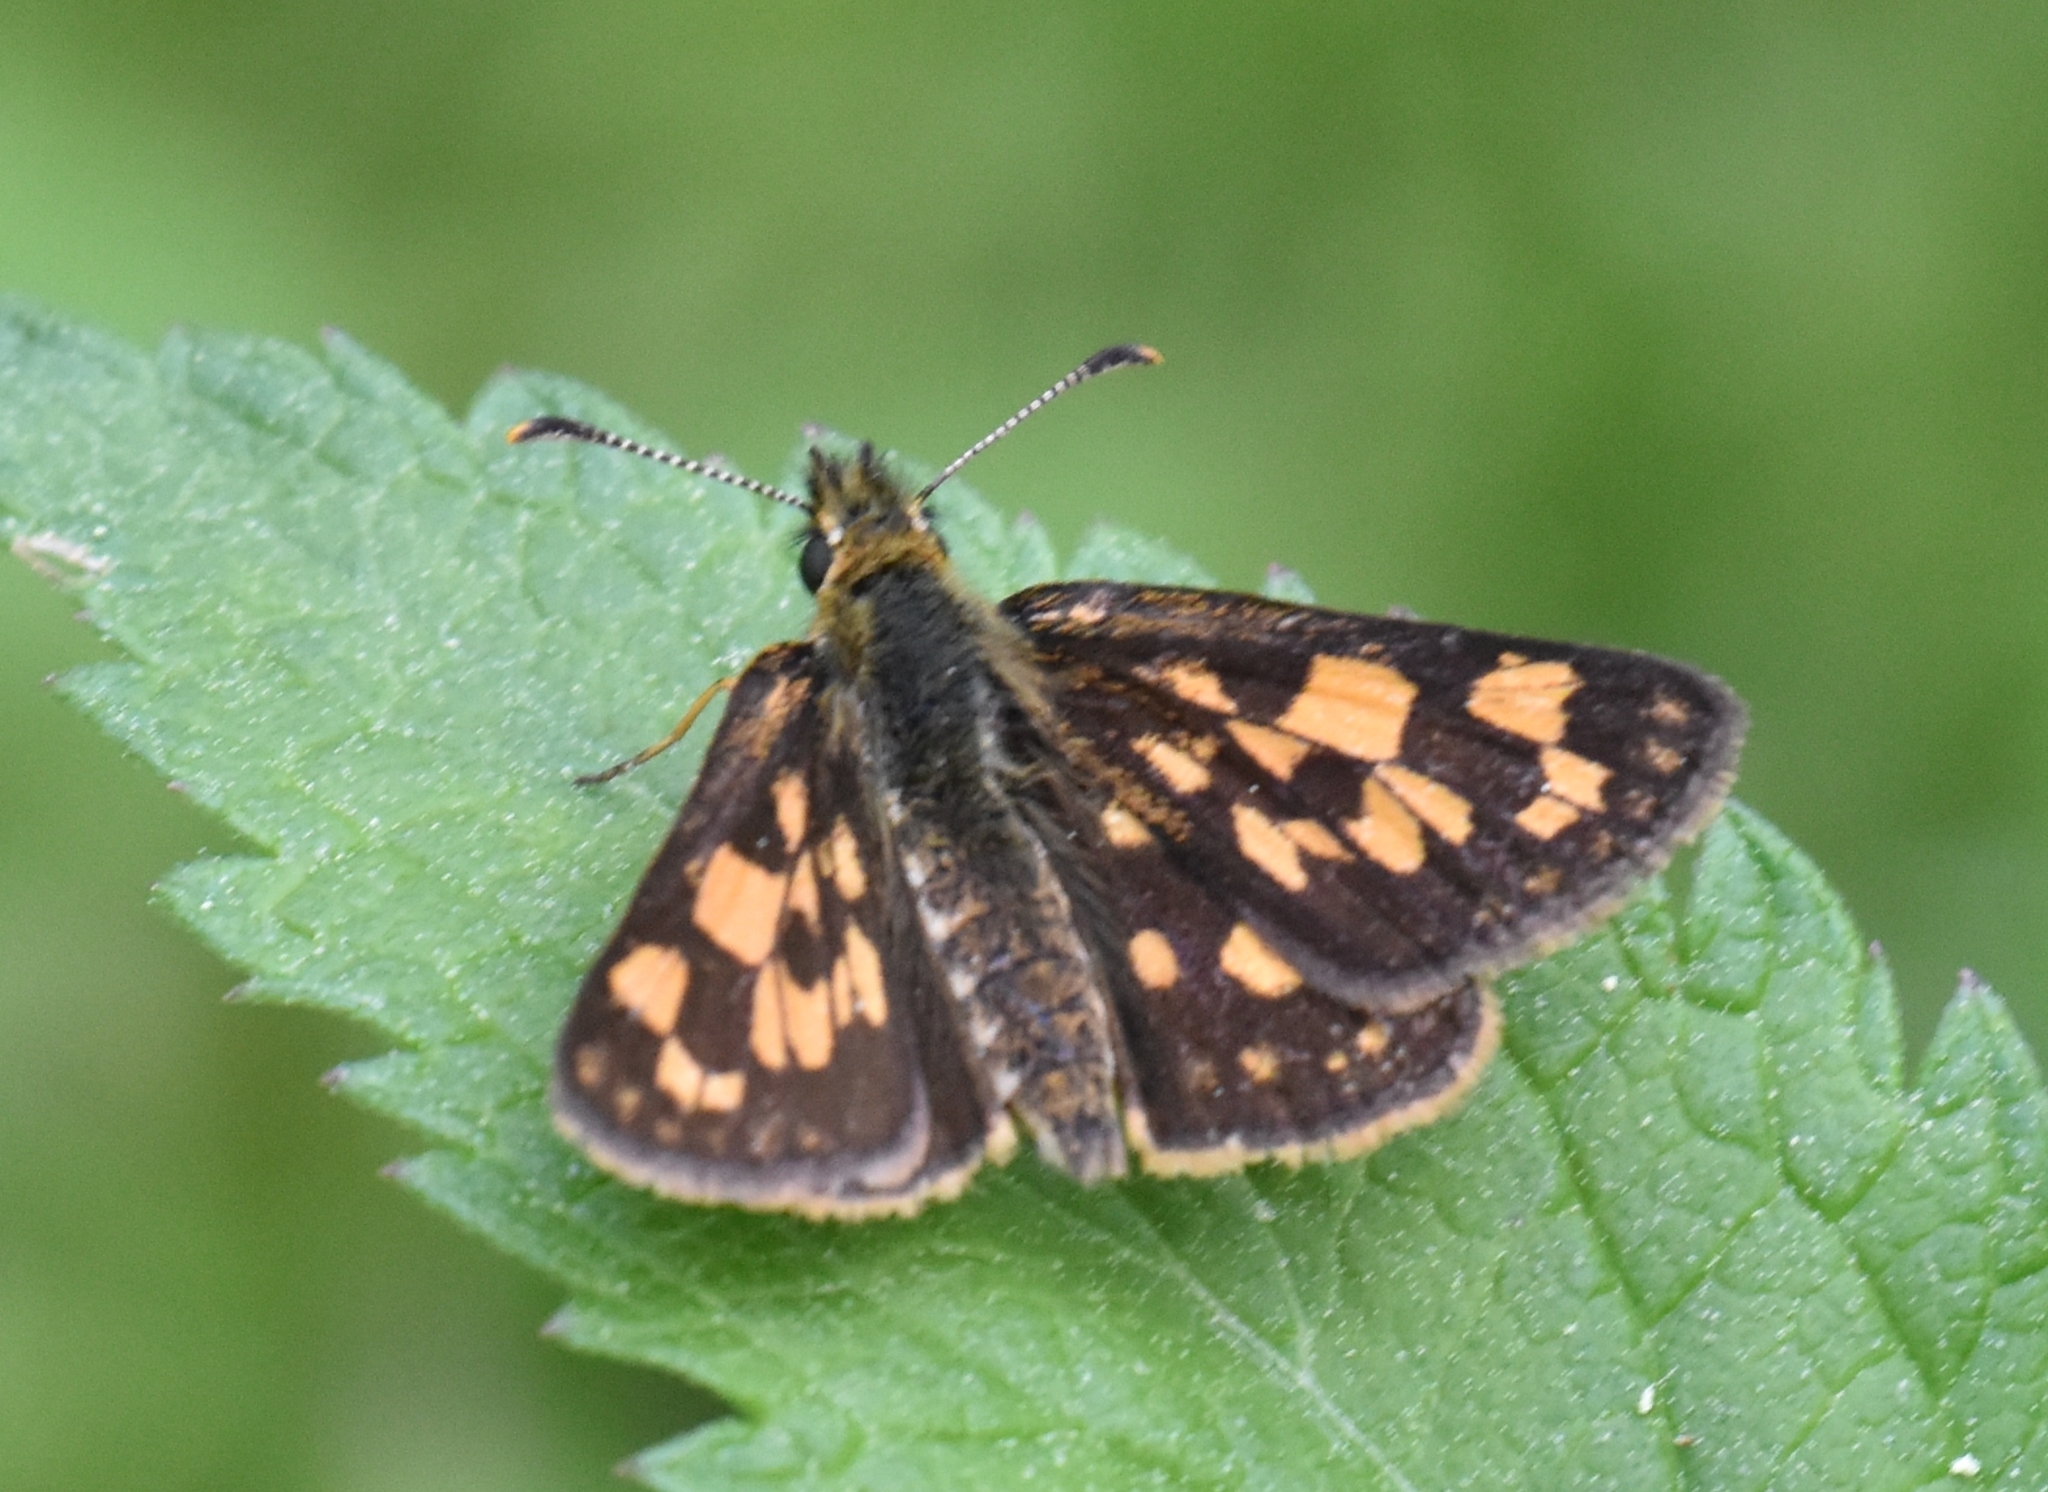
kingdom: Animalia
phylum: Arthropoda
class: Insecta
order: Lepidoptera
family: Hesperiidae
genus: Carterocephalus
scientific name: Carterocephalus mandan
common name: Arctic skipperling
